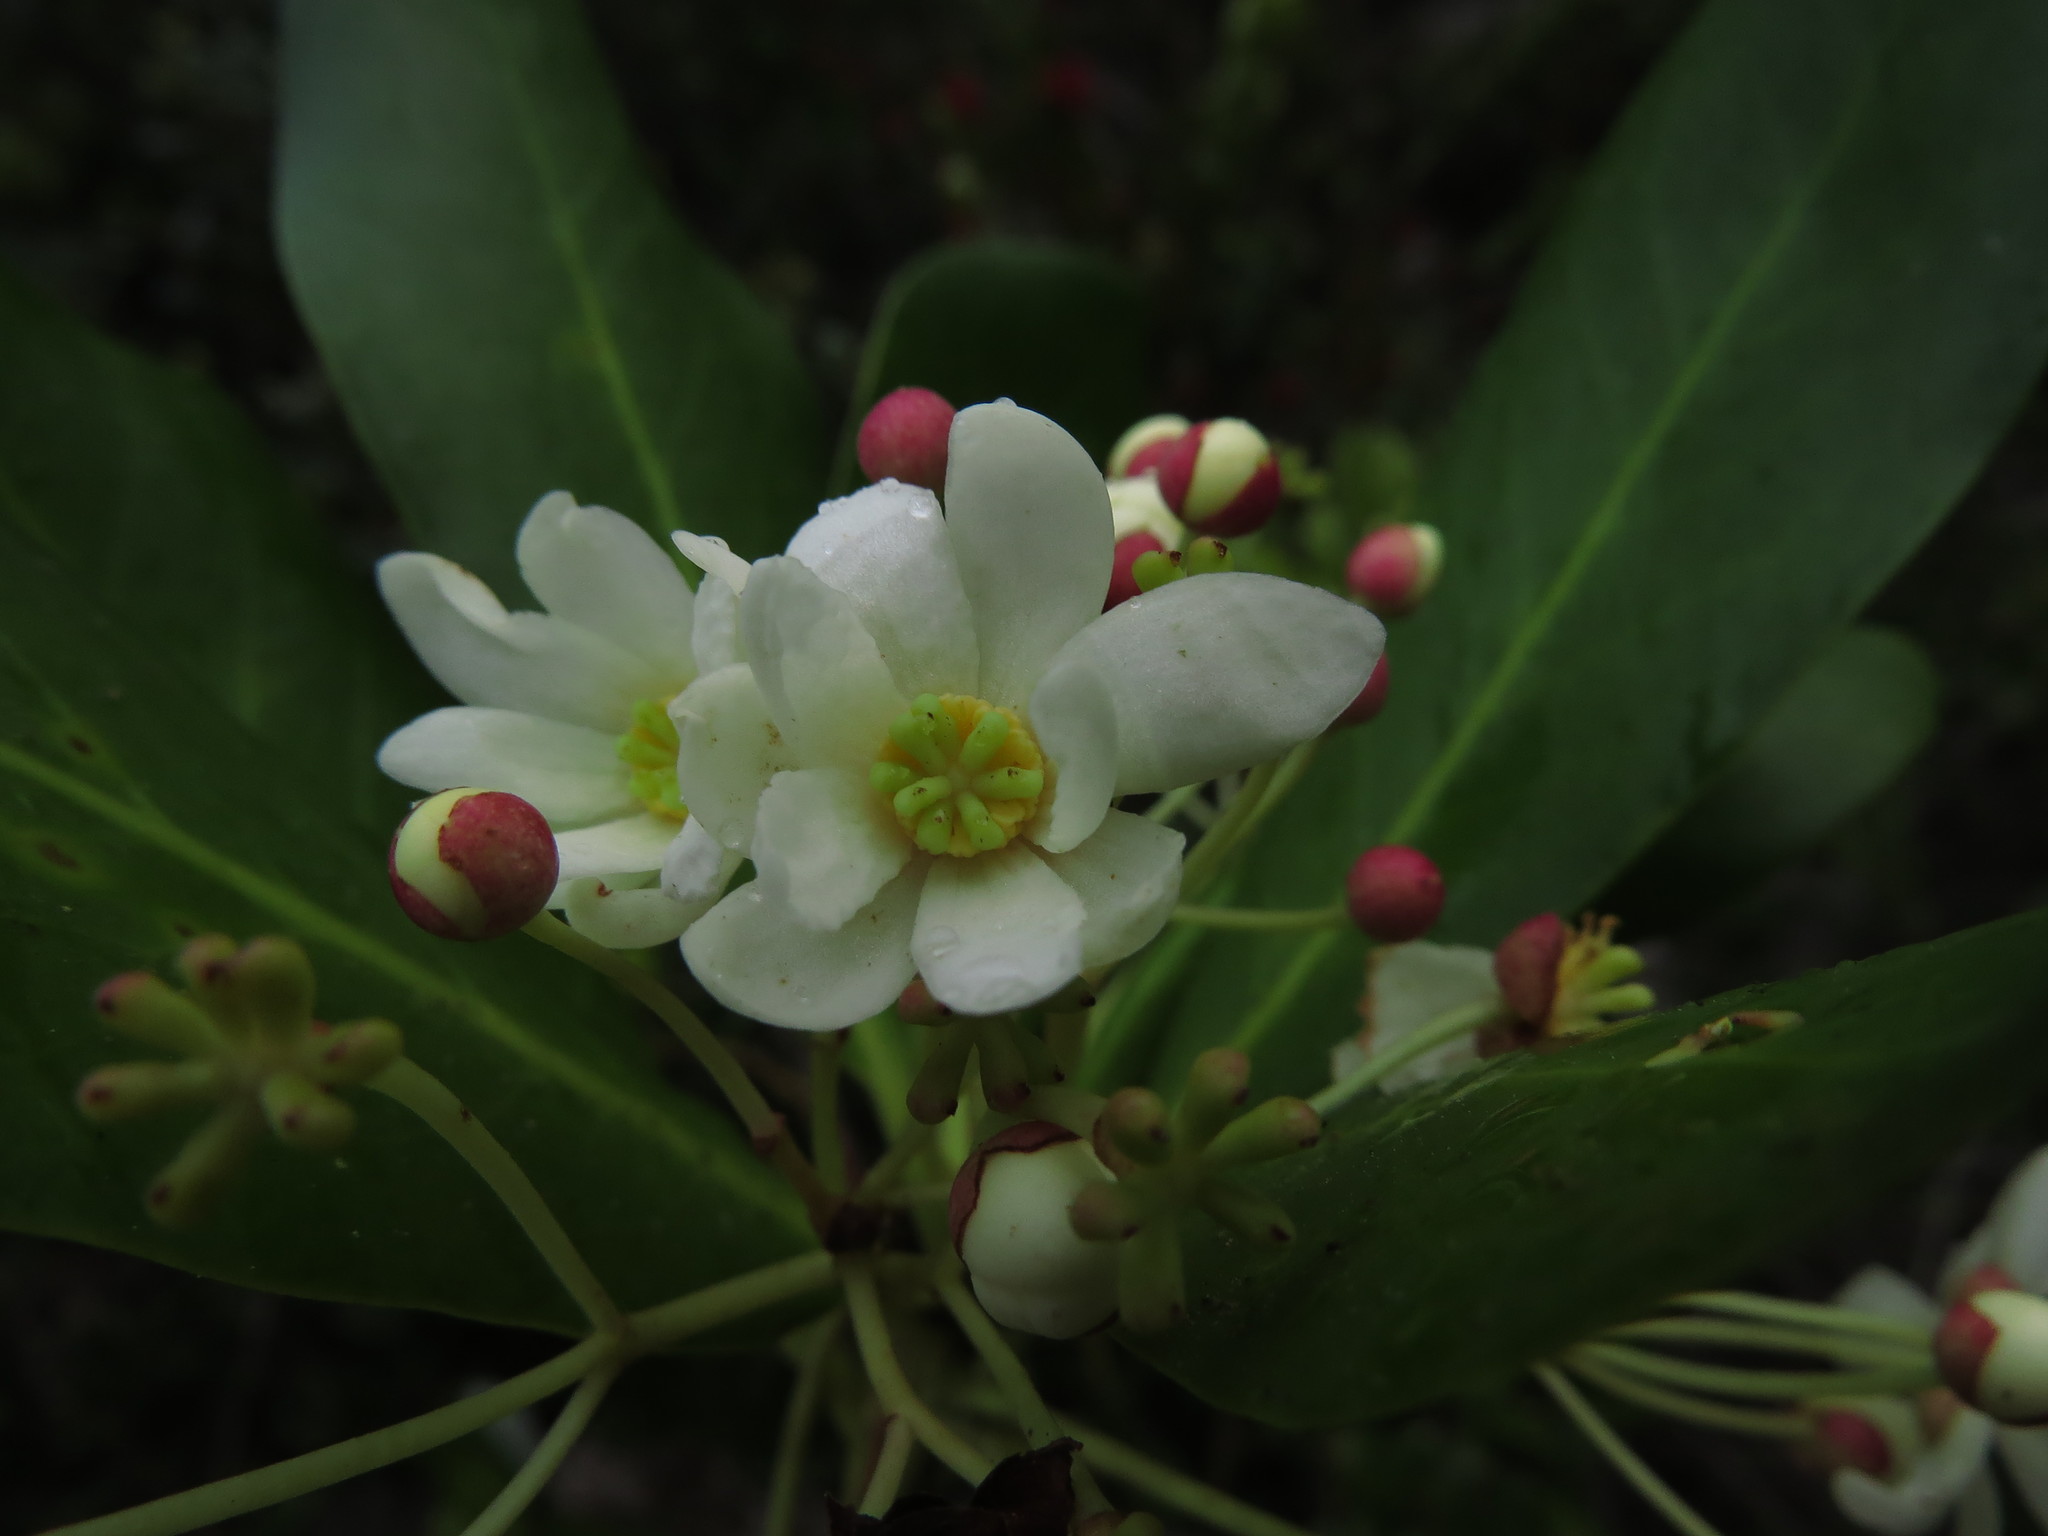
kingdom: Plantae
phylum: Tracheophyta
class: Magnoliopsida
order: Canellales
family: Winteraceae
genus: Drimys
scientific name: Drimys winteri
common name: Winter's-bark
